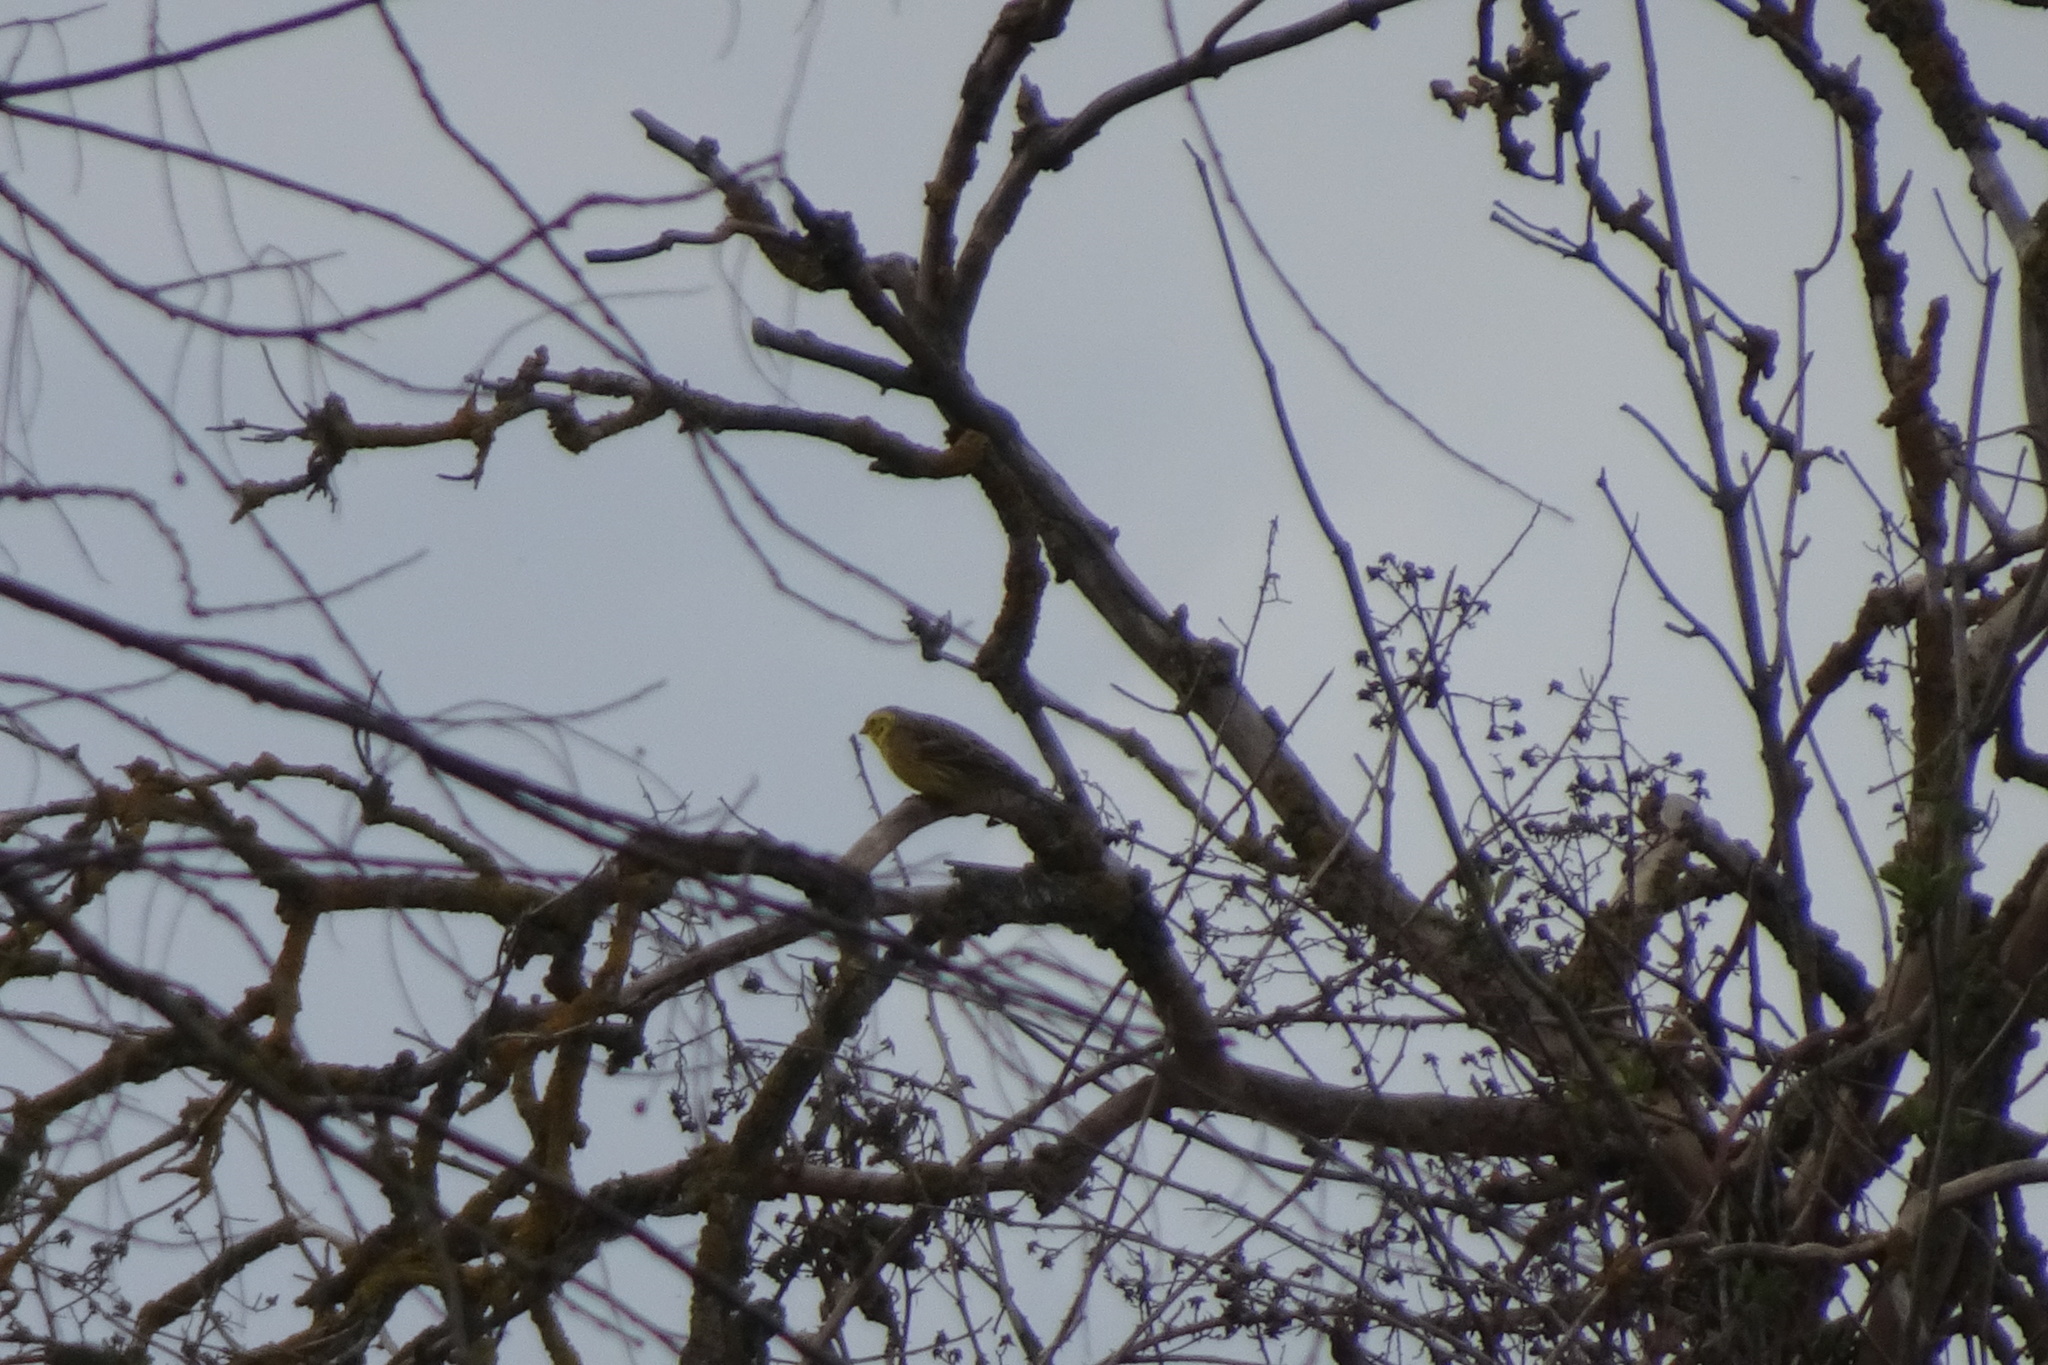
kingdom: Animalia
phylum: Chordata
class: Aves
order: Passeriformes
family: Emberizidae
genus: Emberiza
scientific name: Emberiza citrinella
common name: Yellowhammer
